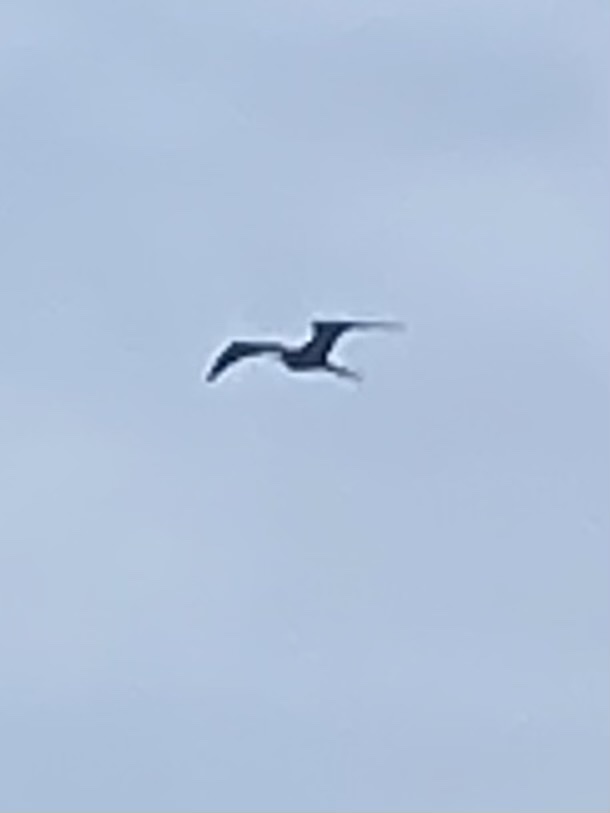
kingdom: Animalia
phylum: Chordata
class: Aves
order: Suliformes
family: Fregatidae
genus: Fregata
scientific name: Fregata magnificens
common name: Magnificent frigatebird
